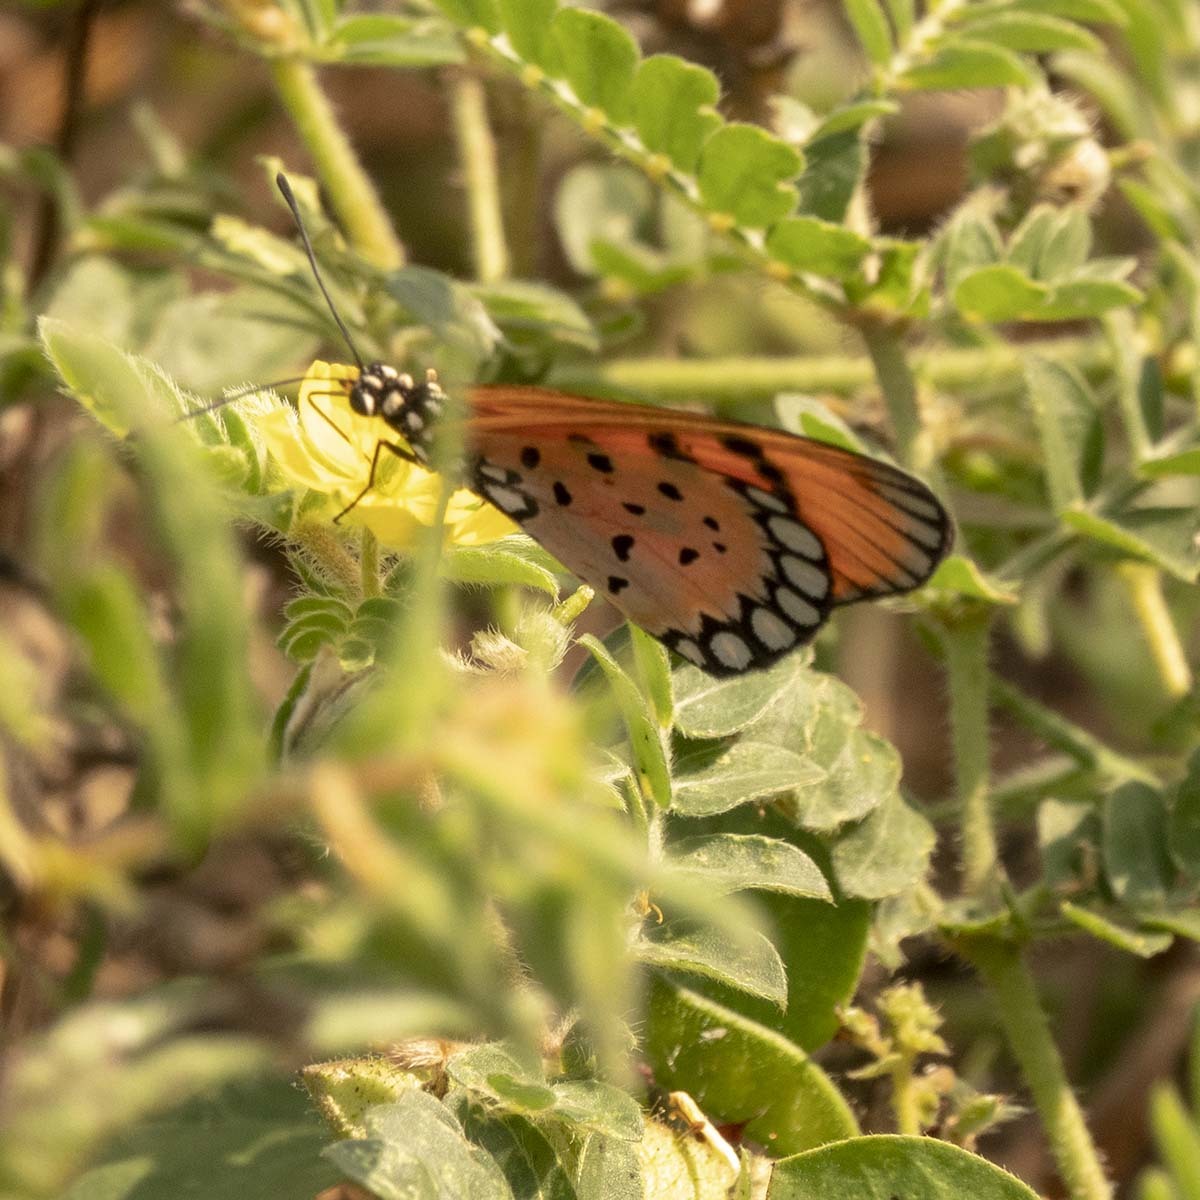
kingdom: Animalia
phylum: Arthropoda
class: Insecta
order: Lepidoptera
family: Nymphalidae
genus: Acraea
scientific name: Acraea terpsicore
